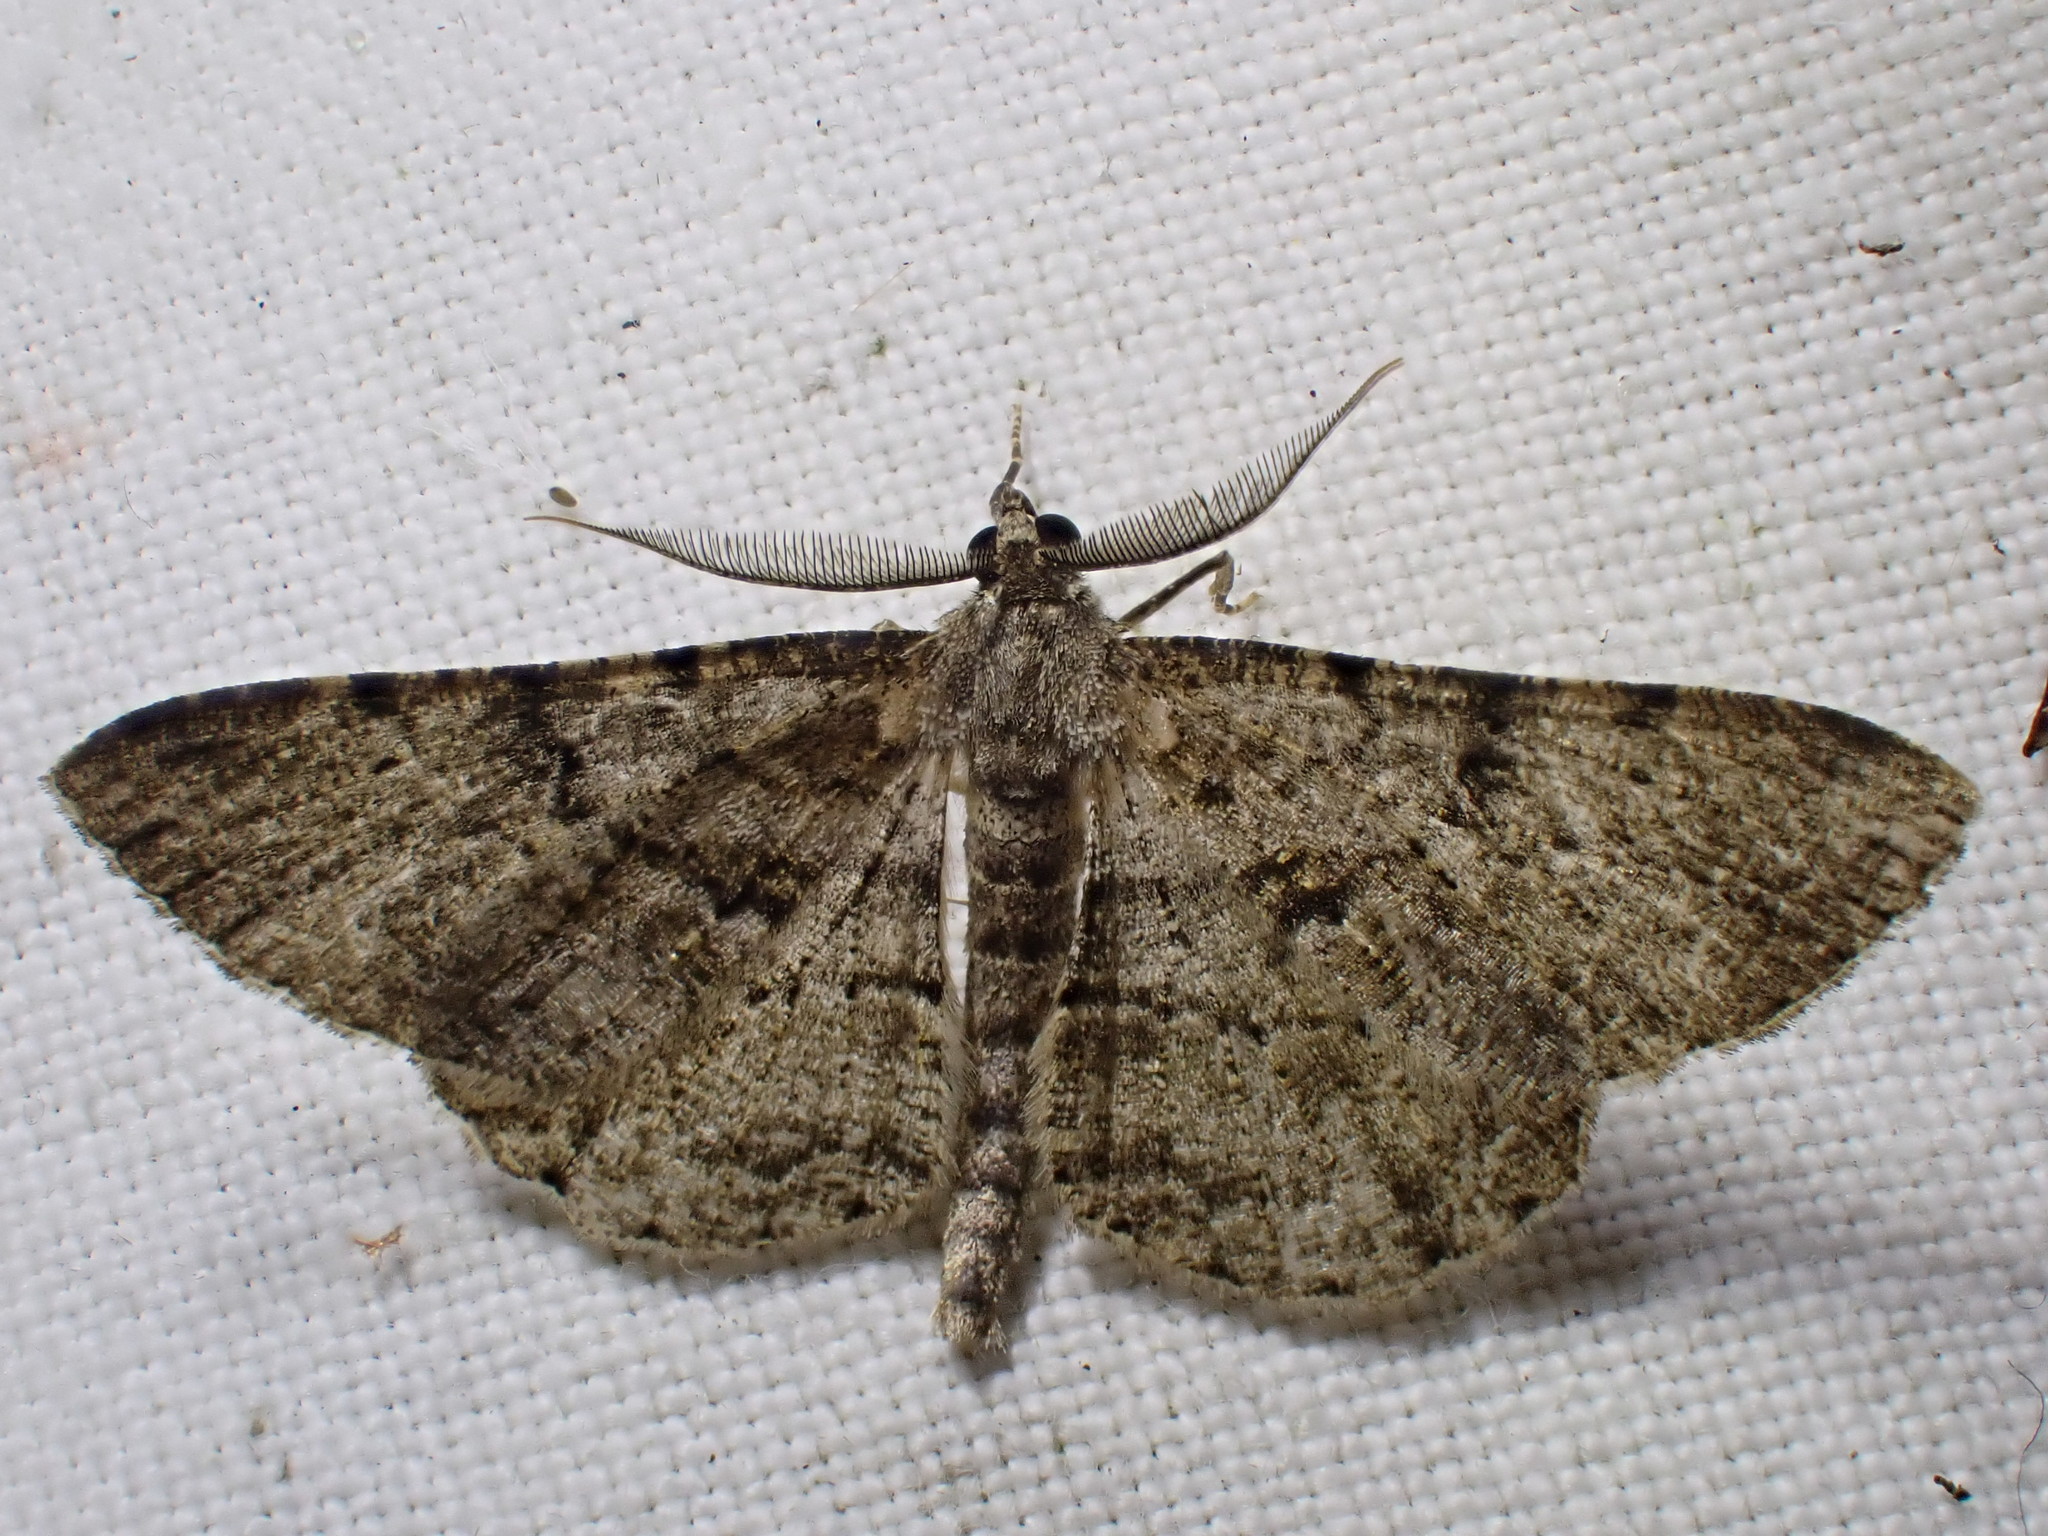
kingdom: Animalia
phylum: Arthropoda
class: Insecta
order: Lepidoptera
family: Geometridae
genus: Peribatodes
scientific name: Peribatodes rhomboidaria
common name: Willow beauty
